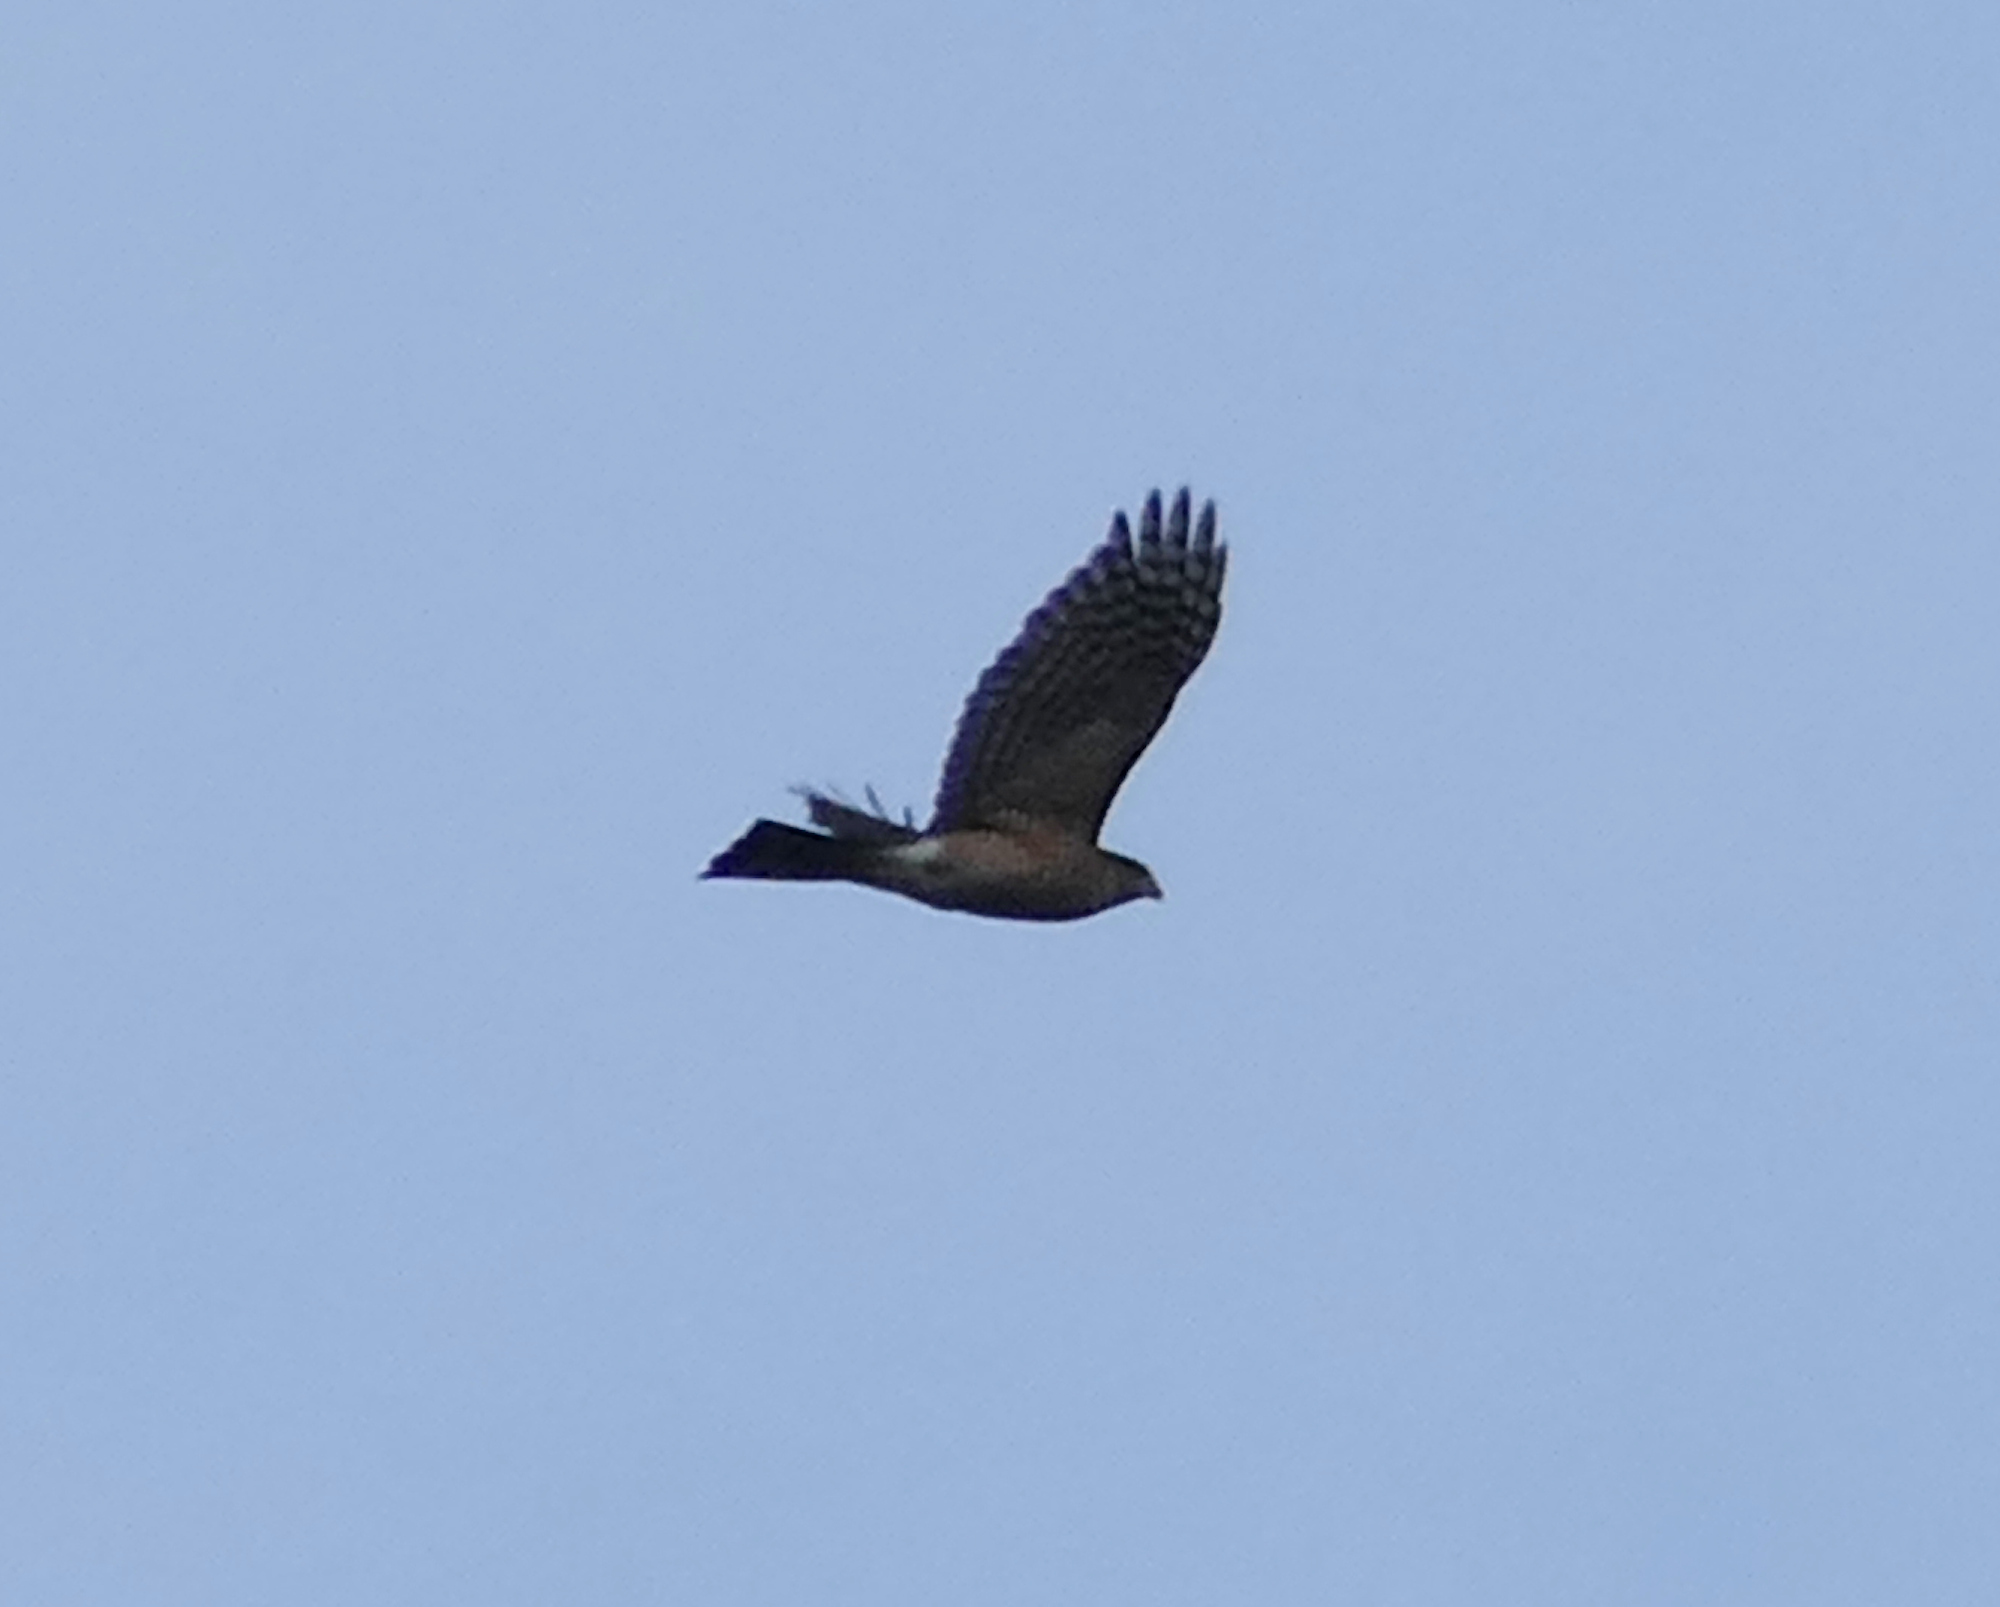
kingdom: Animalia
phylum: Chordata
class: Aves
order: Accipitriformes
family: Accipitridae
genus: Accipiter
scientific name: Accipiter striatus
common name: Sharp-shinned hawk
